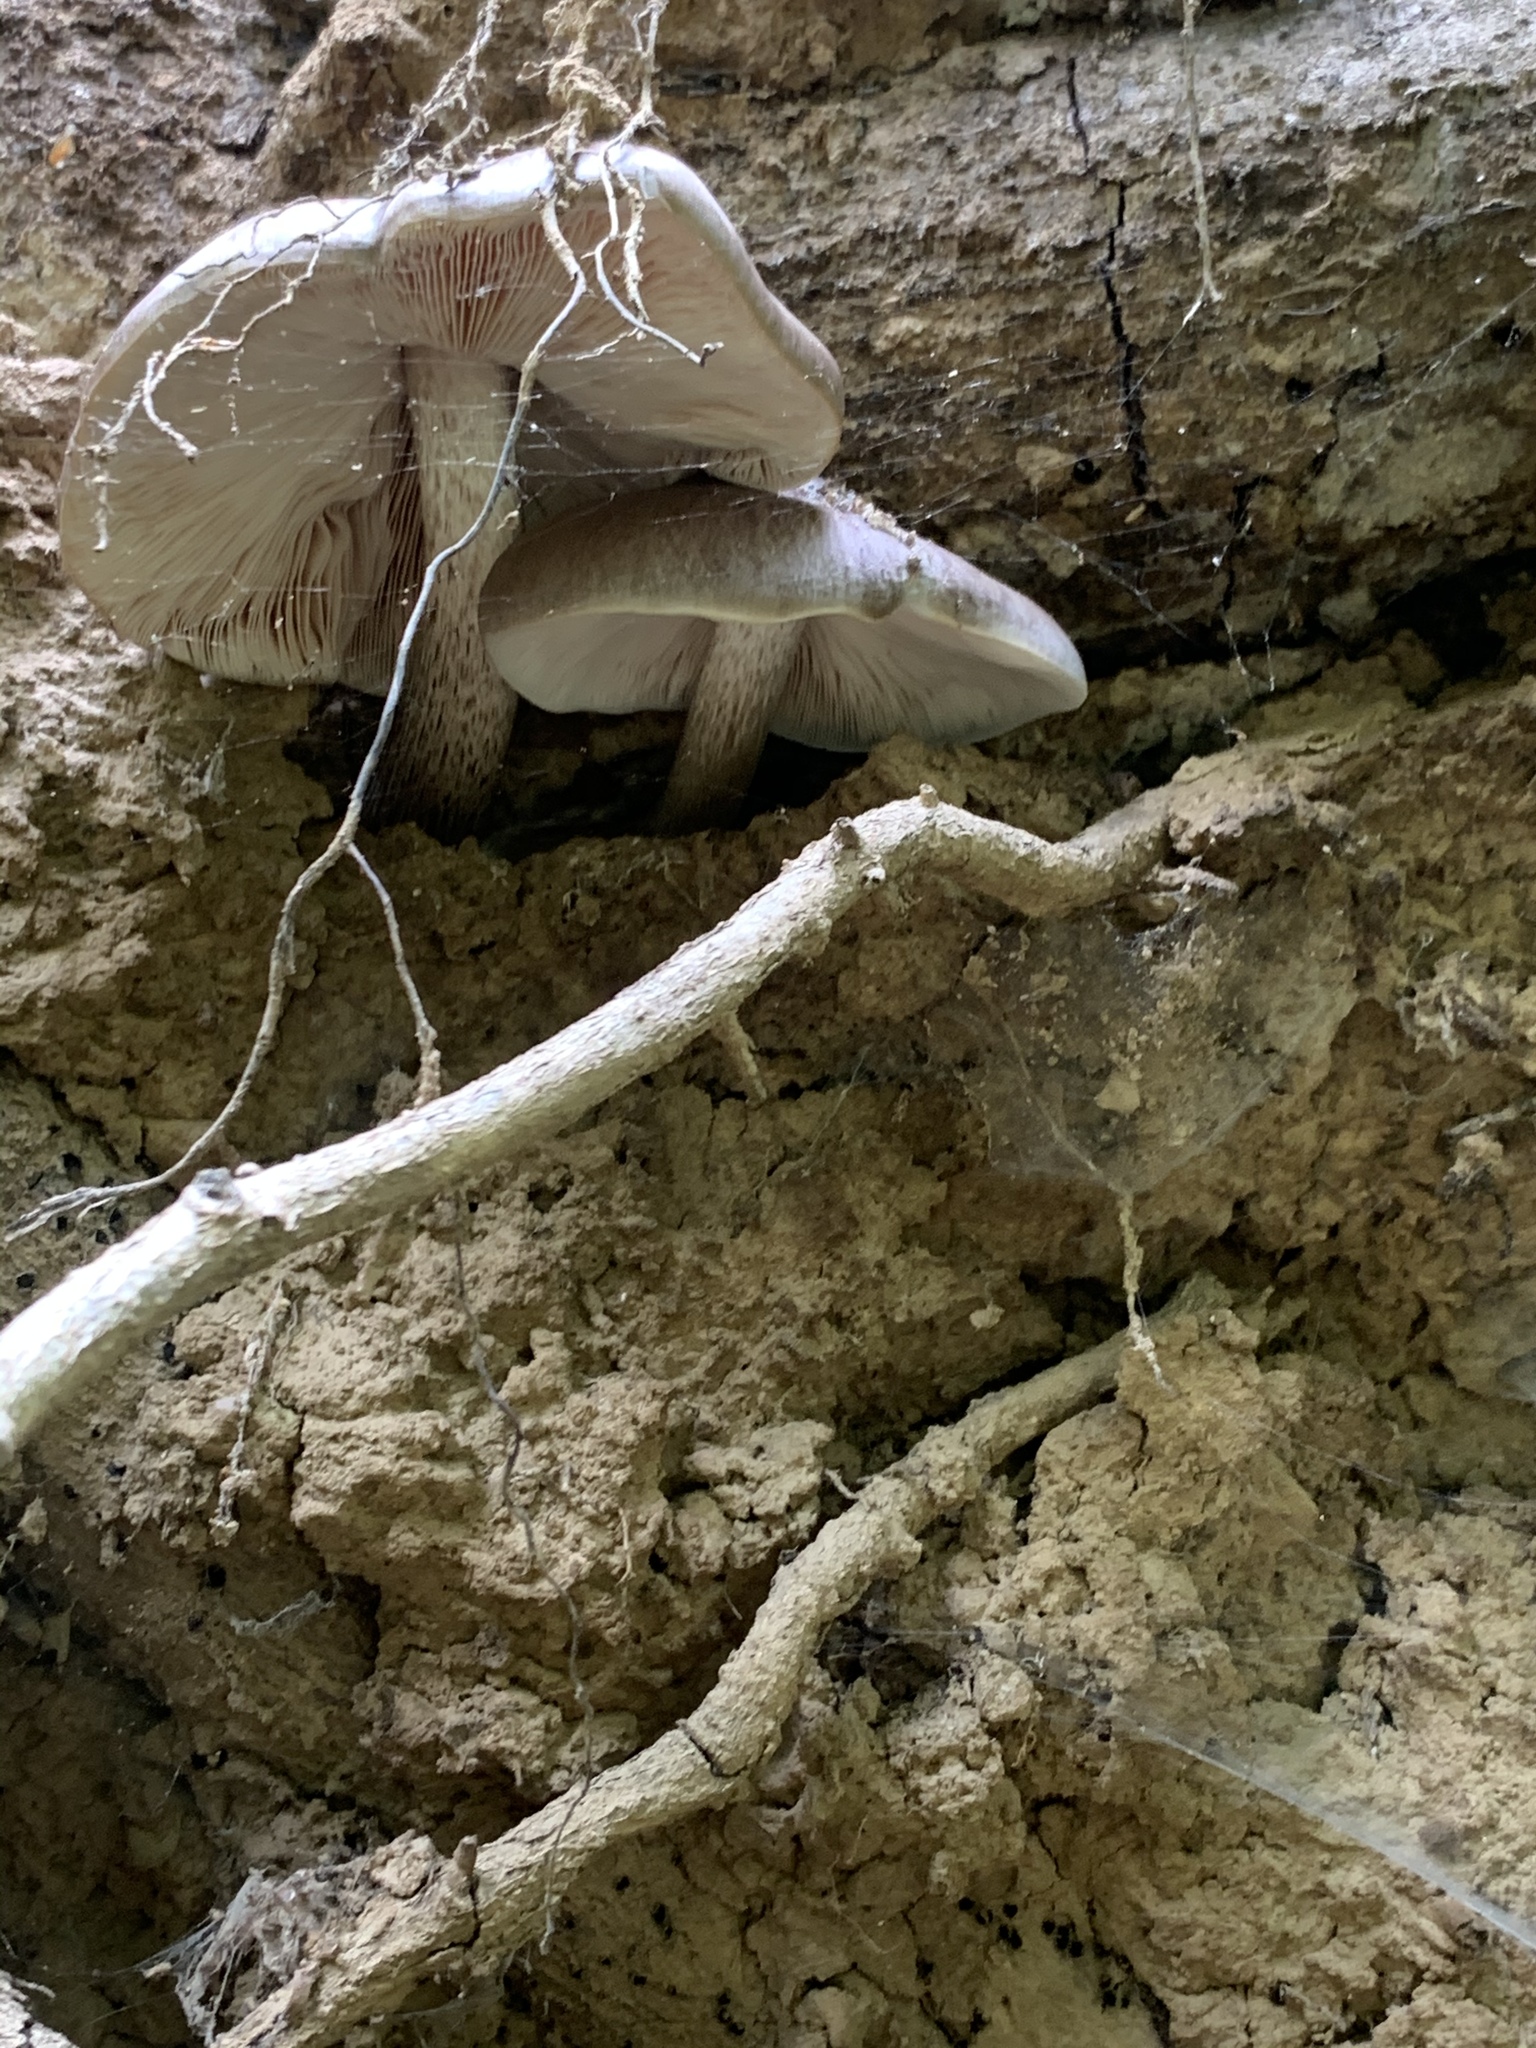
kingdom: Fungi
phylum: Basidiomycota
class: Agaricomycetes
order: Agaricales
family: Pluteaceae
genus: Pluteus
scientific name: Pluteus exilis
